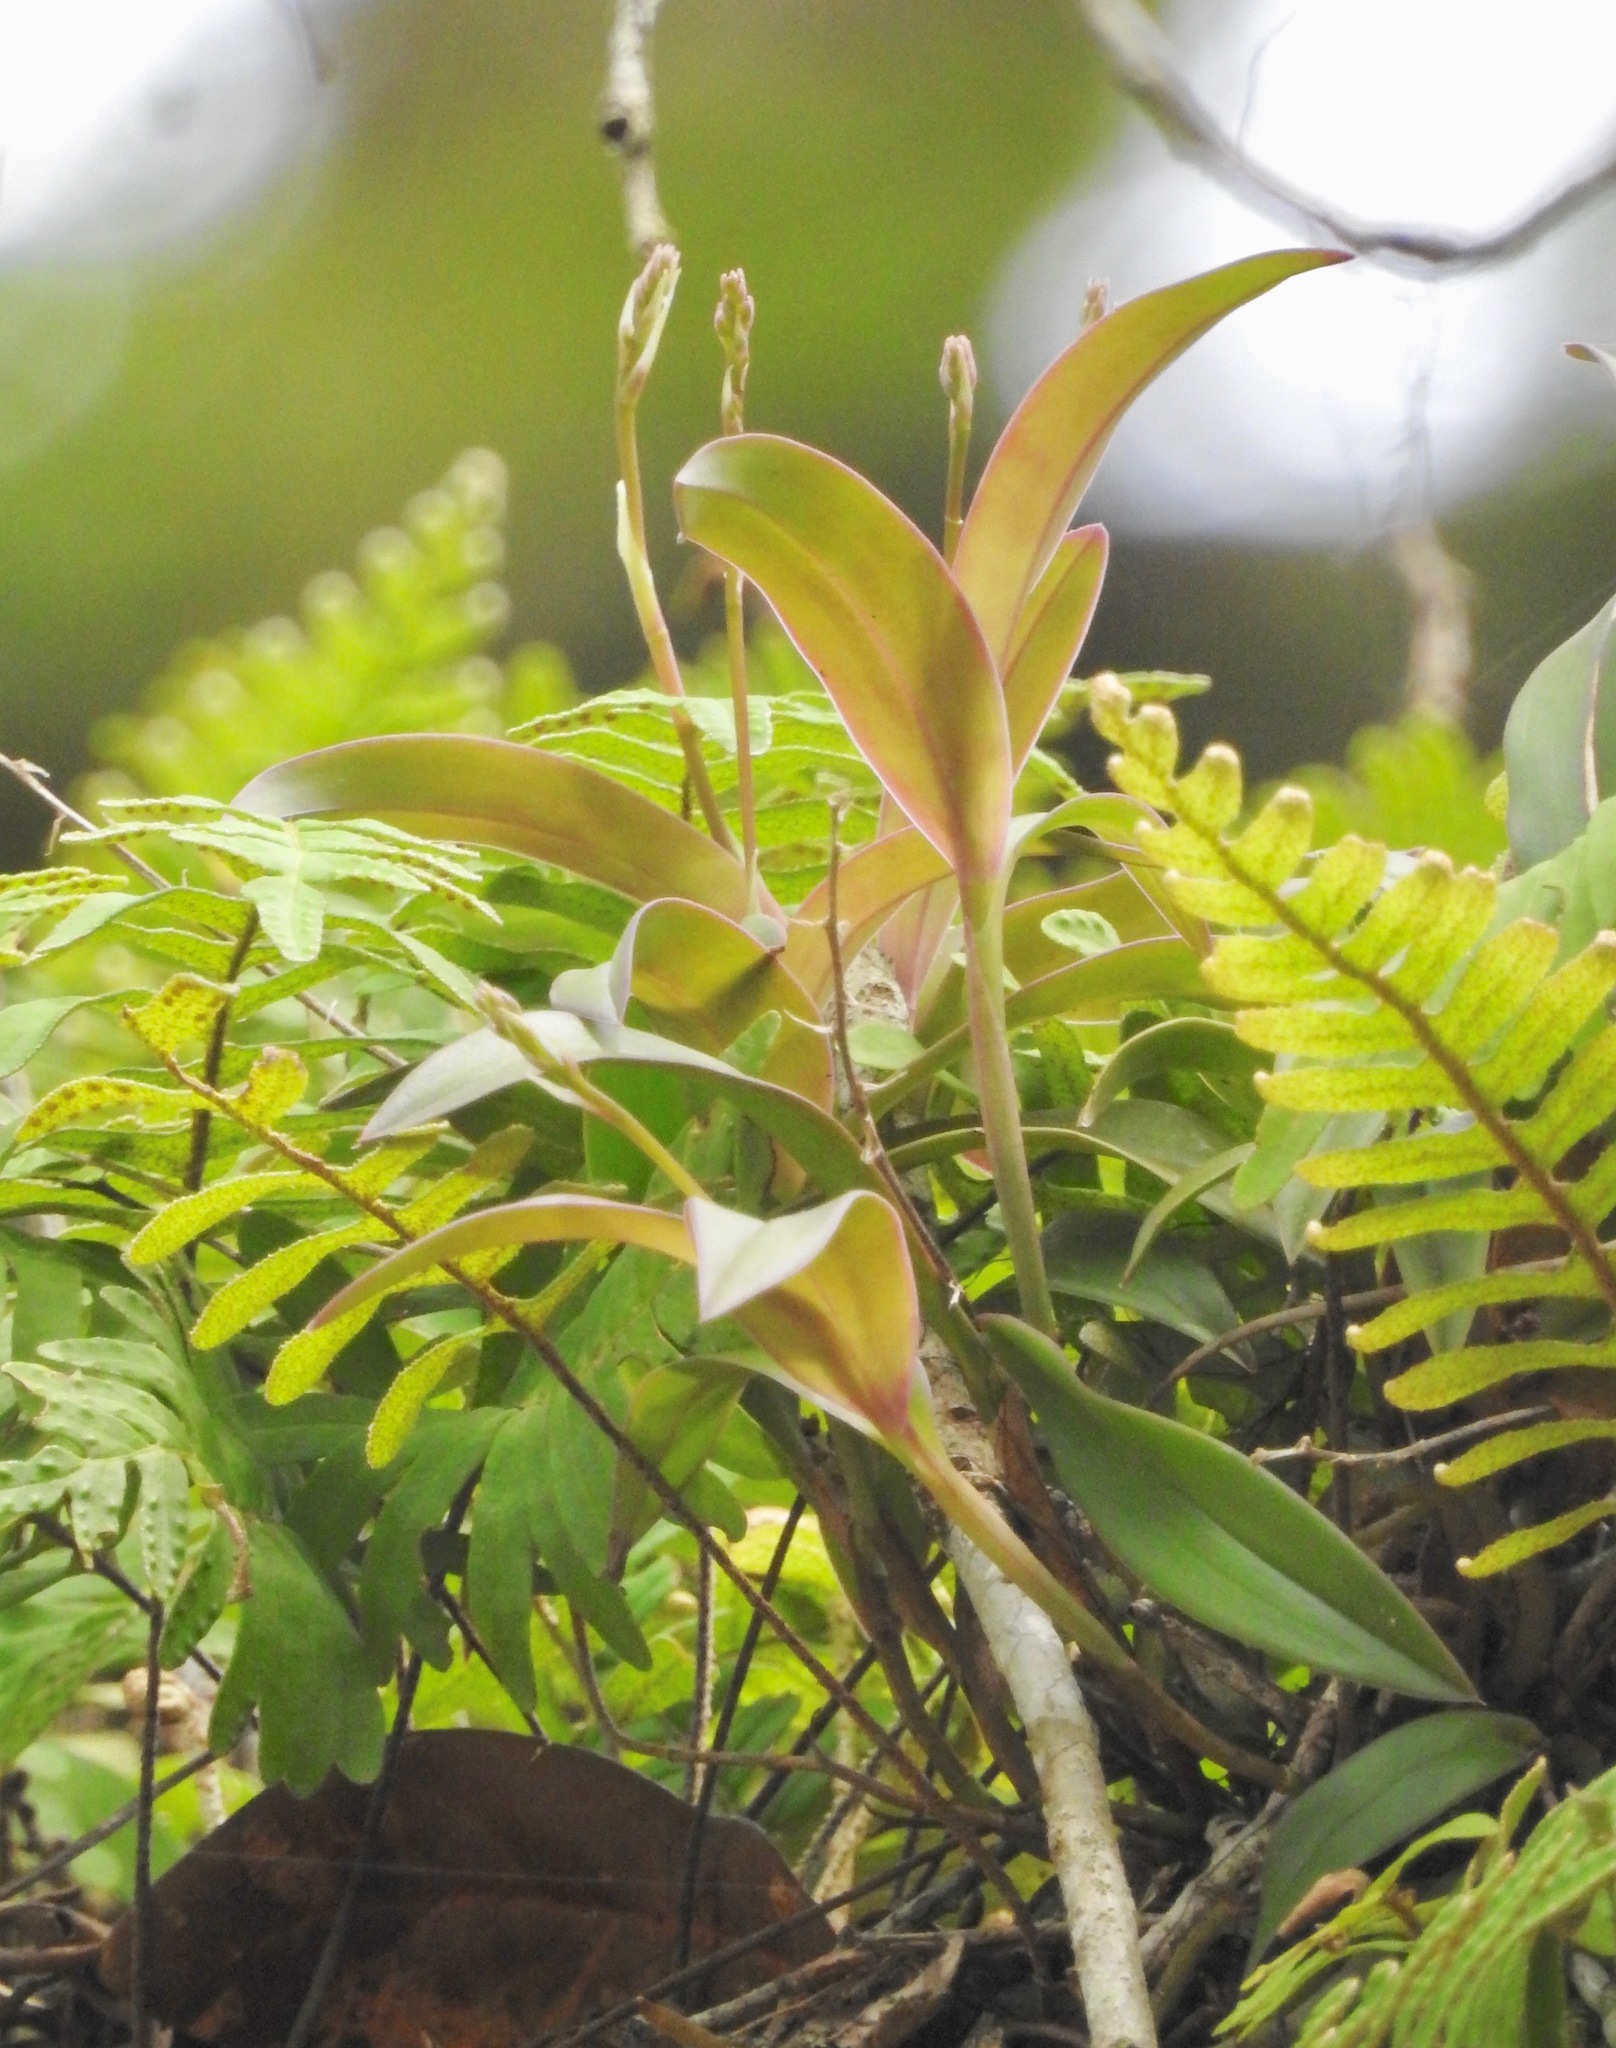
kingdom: Plantae
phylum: Tracheophyta
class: Liliopsida
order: Asparagales
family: Orchidaceae
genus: Epidendrum
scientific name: Epidendrum conopseum
